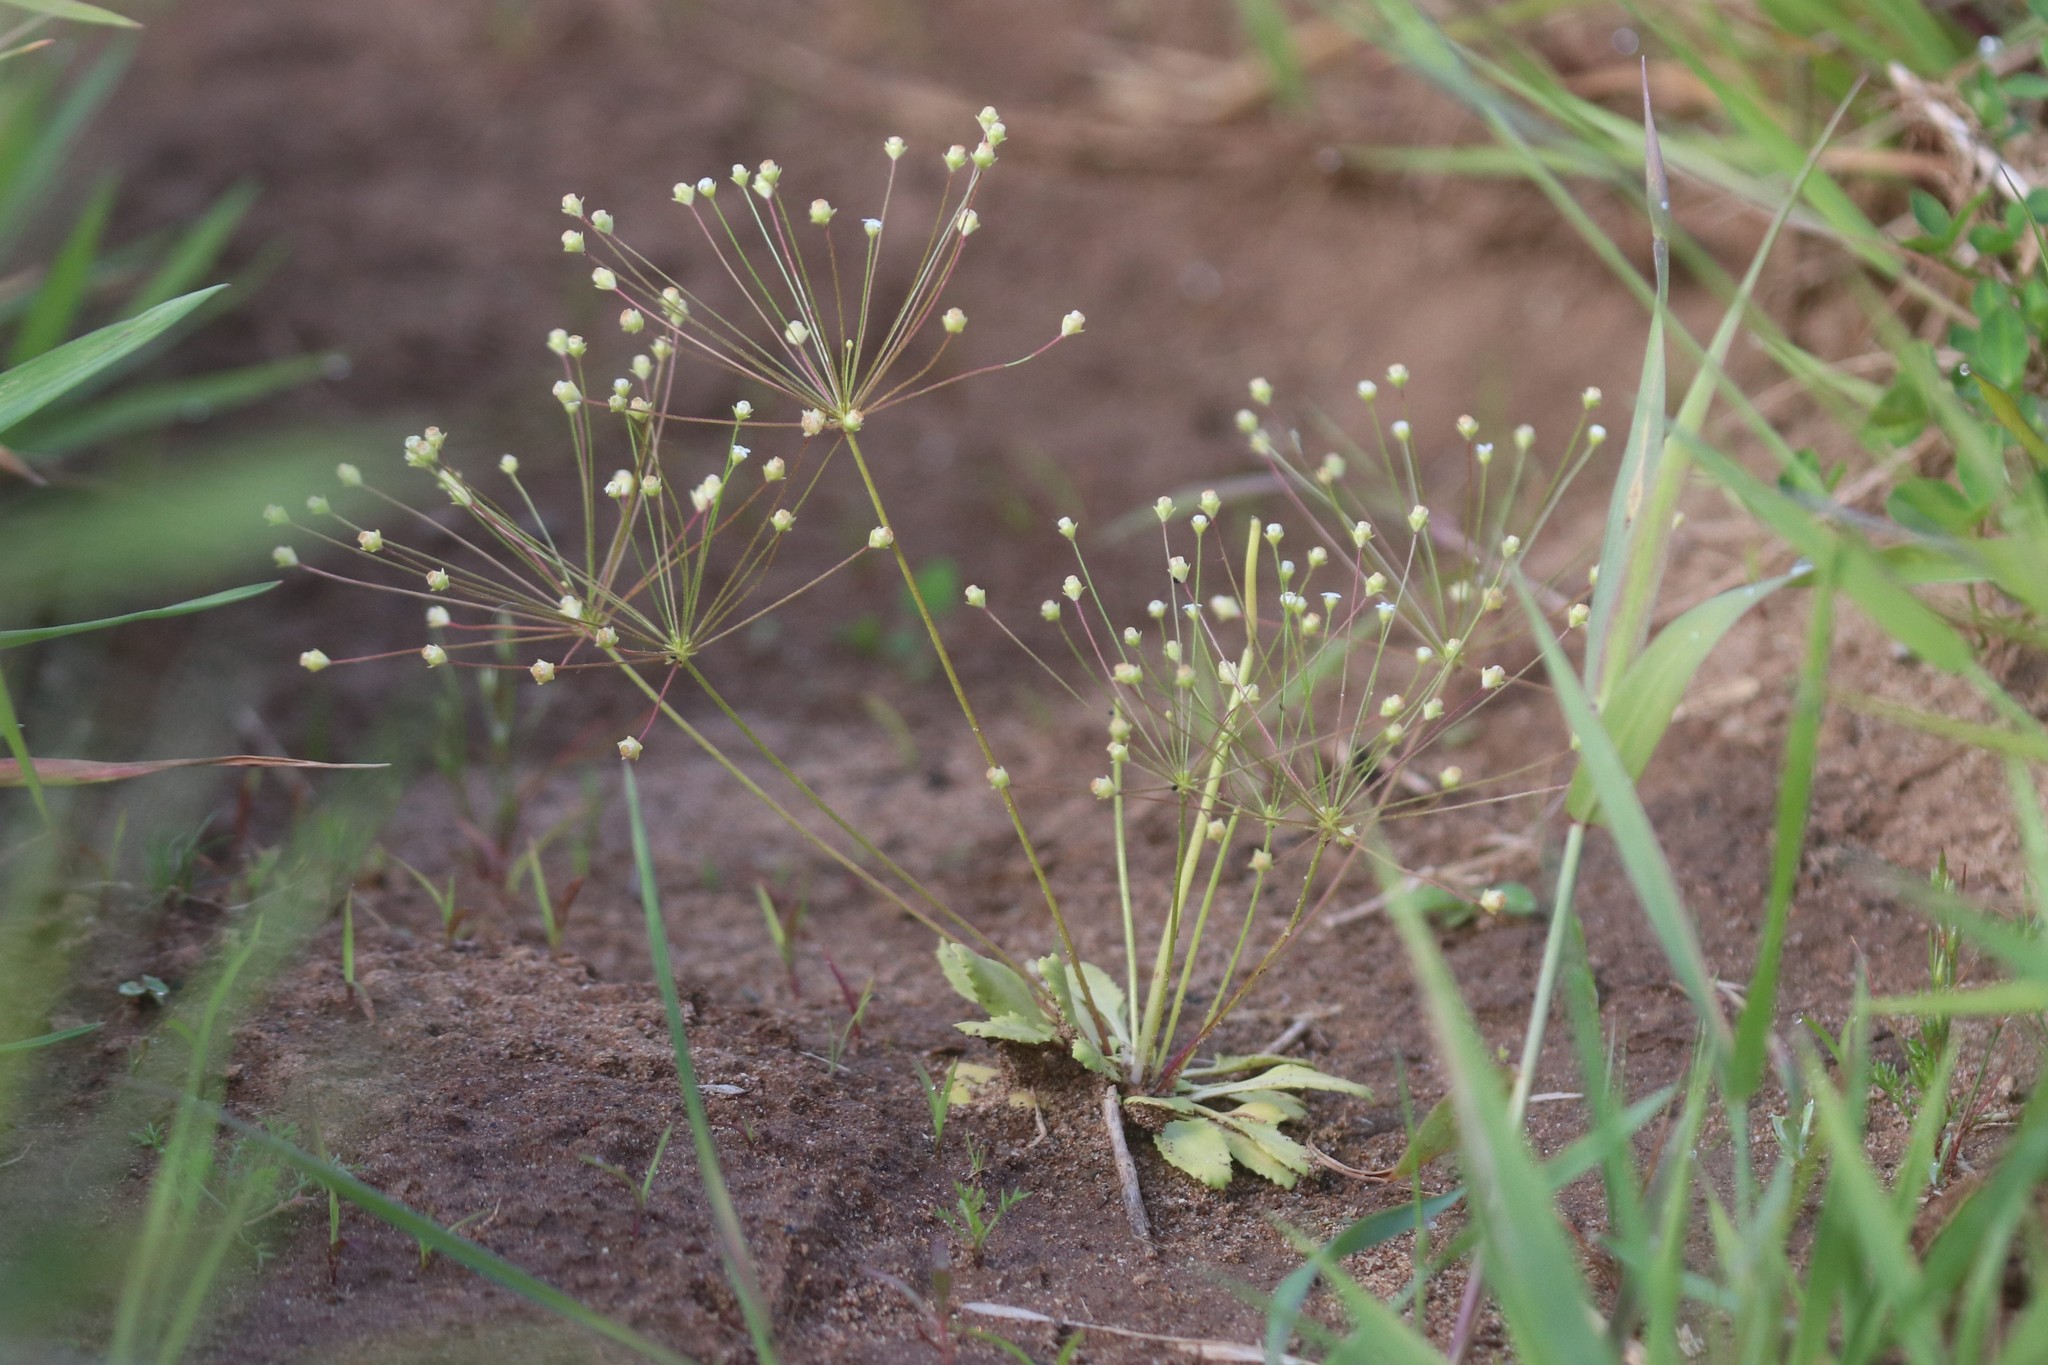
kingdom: Plantae
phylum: Tracheophyta
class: Magnoliopsida
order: Ericales
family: Primulaceae
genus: Androsace
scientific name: Androsace filiformis
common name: Filiform rock jasmine
